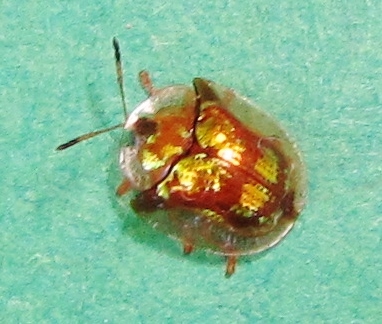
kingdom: Animalia
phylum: Arthropoda
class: Insecta
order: Coleoptera
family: Chrysomelidae
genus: Deloyala
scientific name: Deloyala guttata
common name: Mottled tortoise beetle
